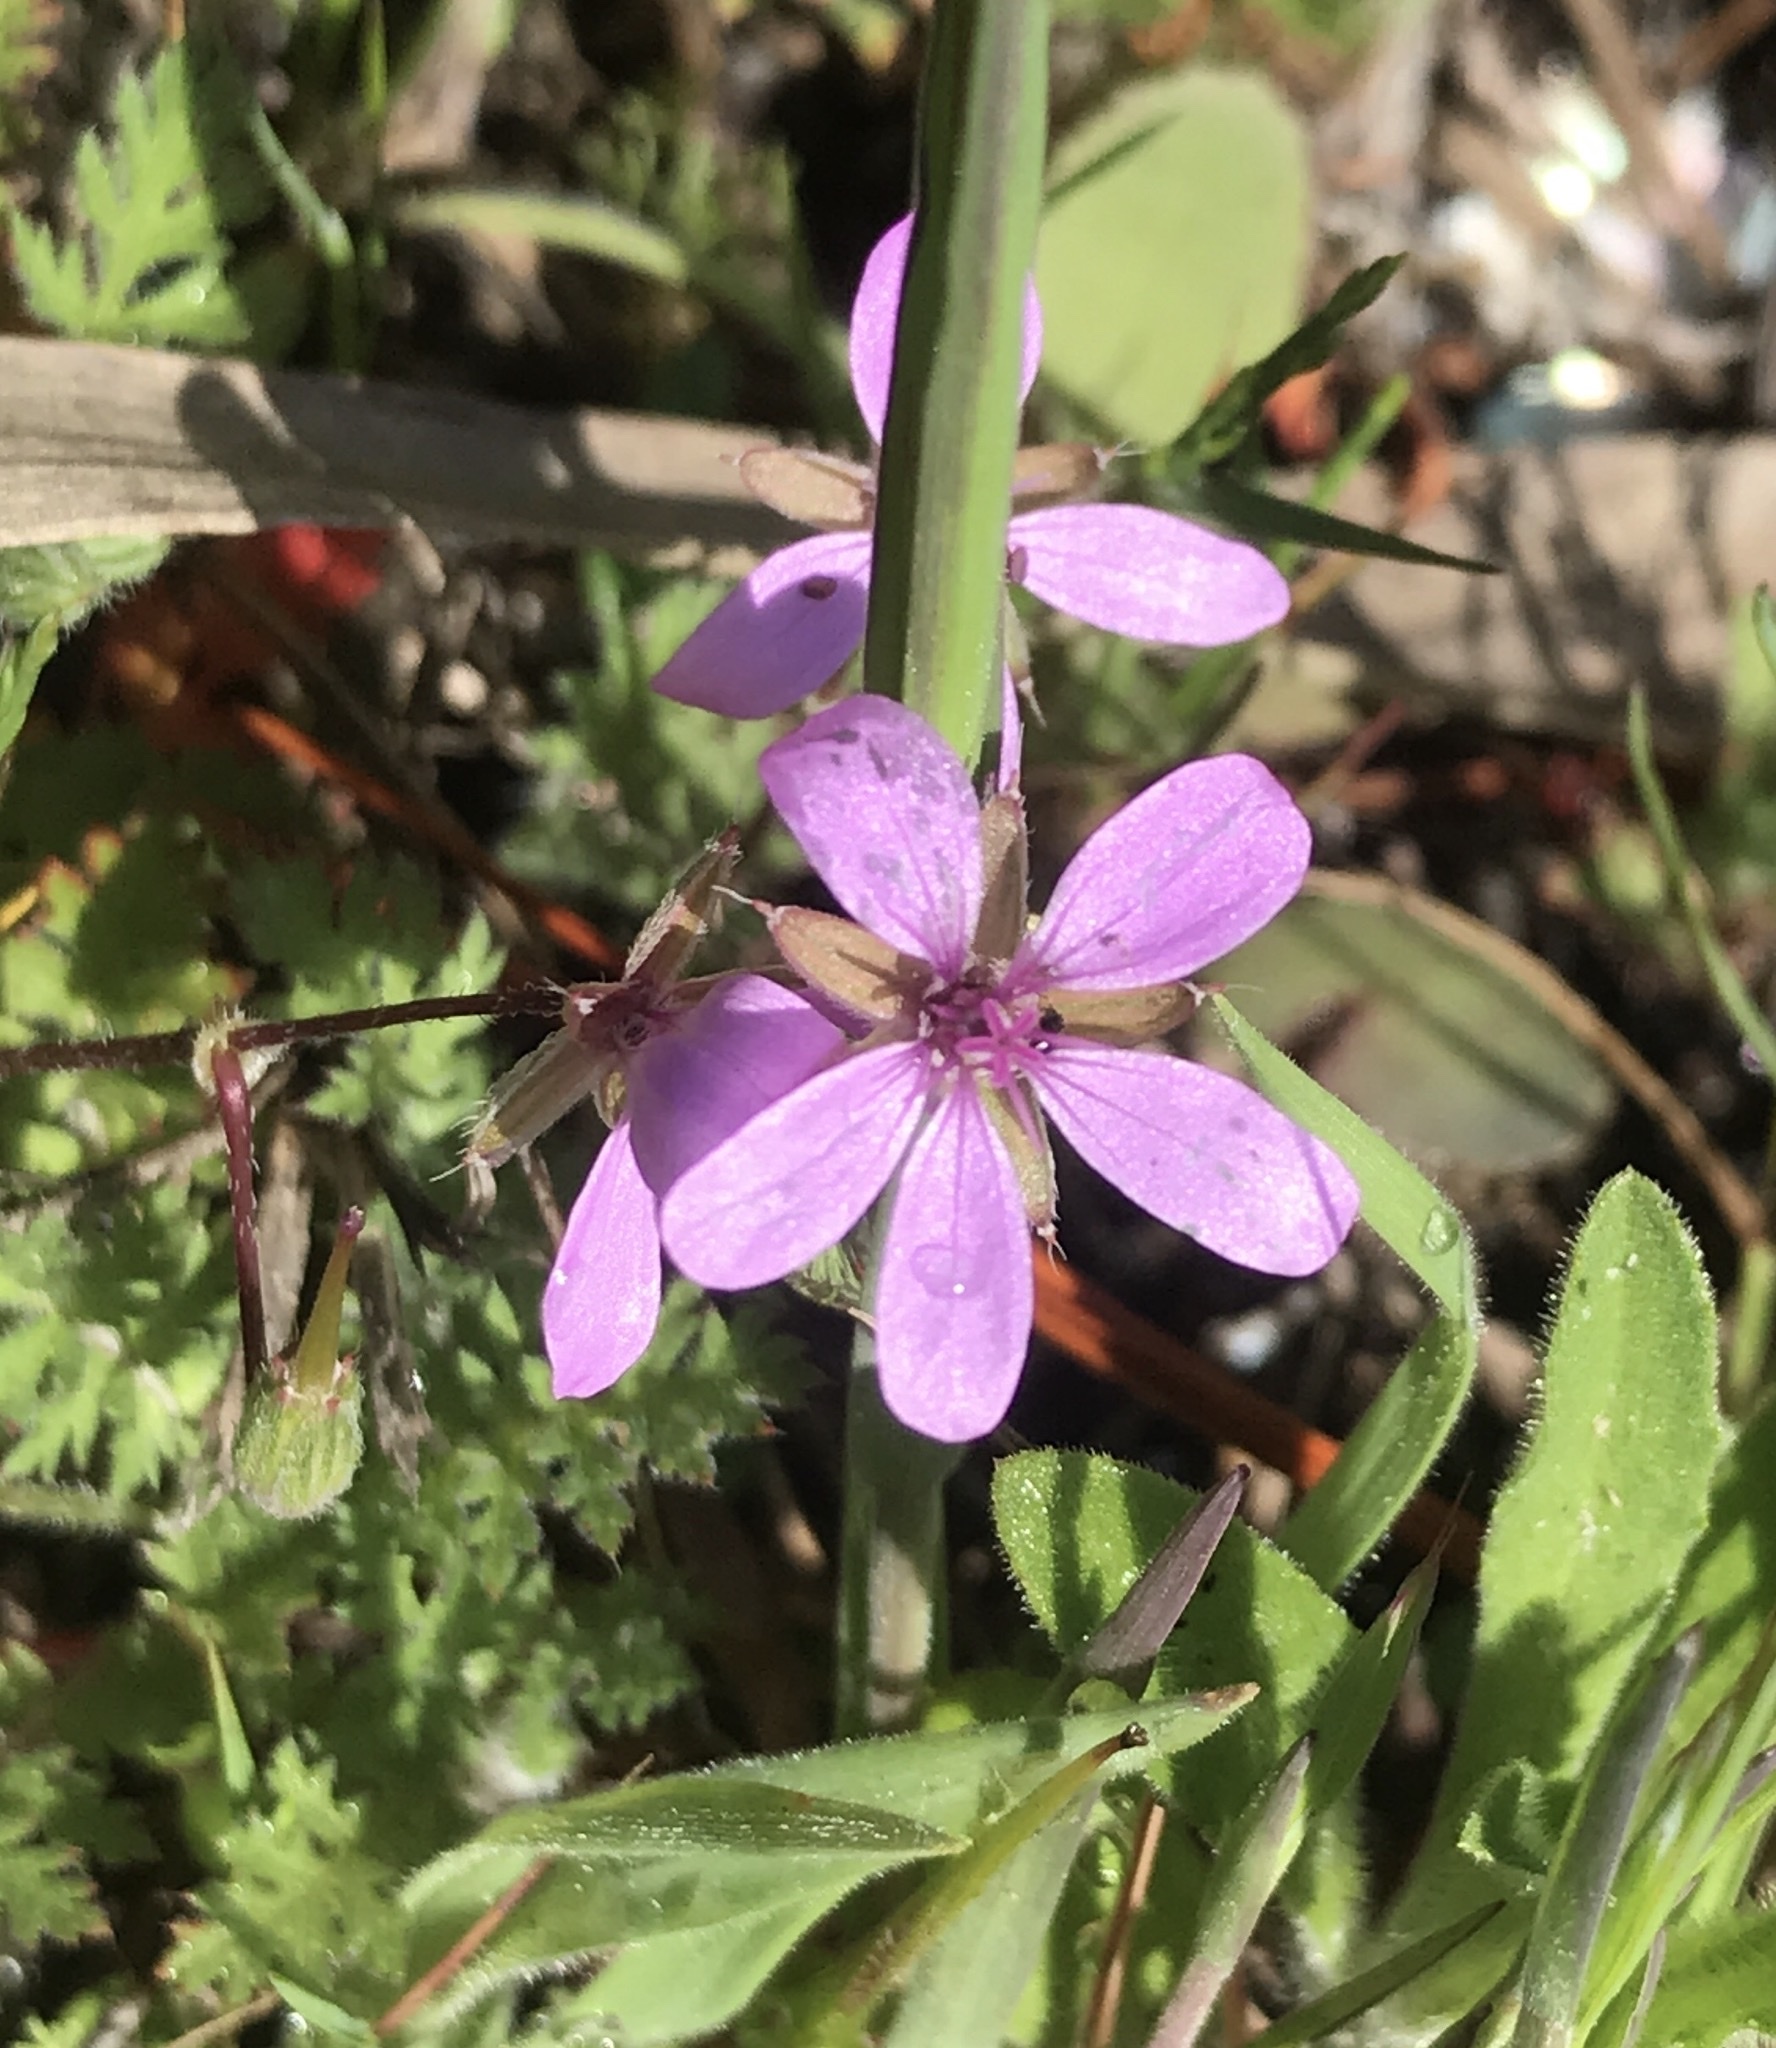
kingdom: Plantae
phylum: Tracheophyta
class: Magnoliopsida
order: Geraniales
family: Geraniaceae
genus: Erodium
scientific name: Erodium cicutarium
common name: Common stork's-bill
